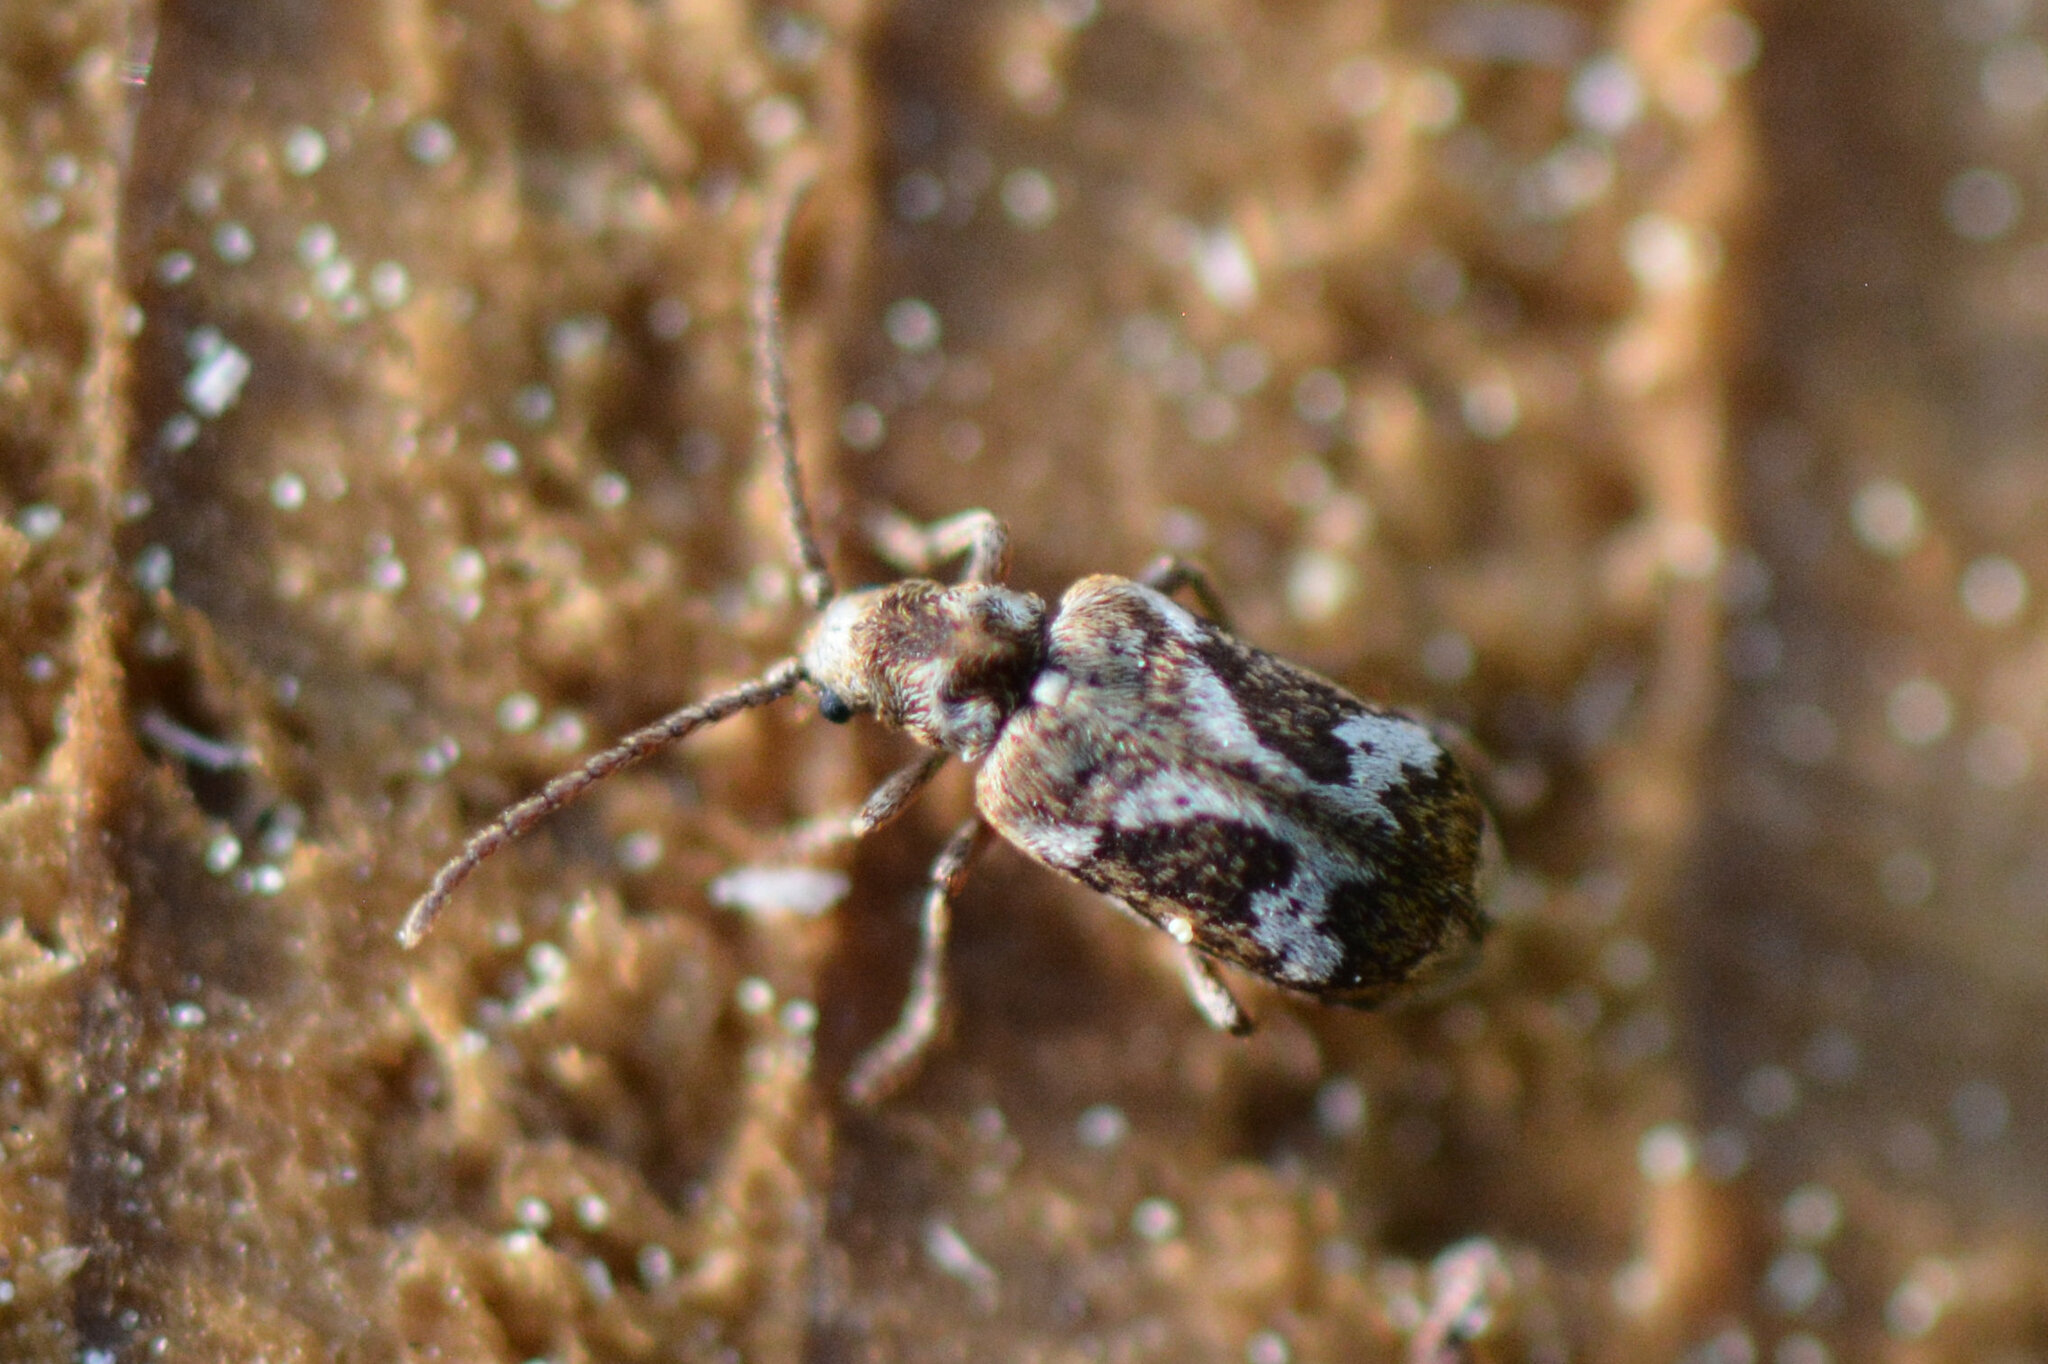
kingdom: Animalia
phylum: Arthropoda
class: Insecta
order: Coleoptera
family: Anobiidae
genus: Ptinomorphus
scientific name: Ptinomorphus imperialis
